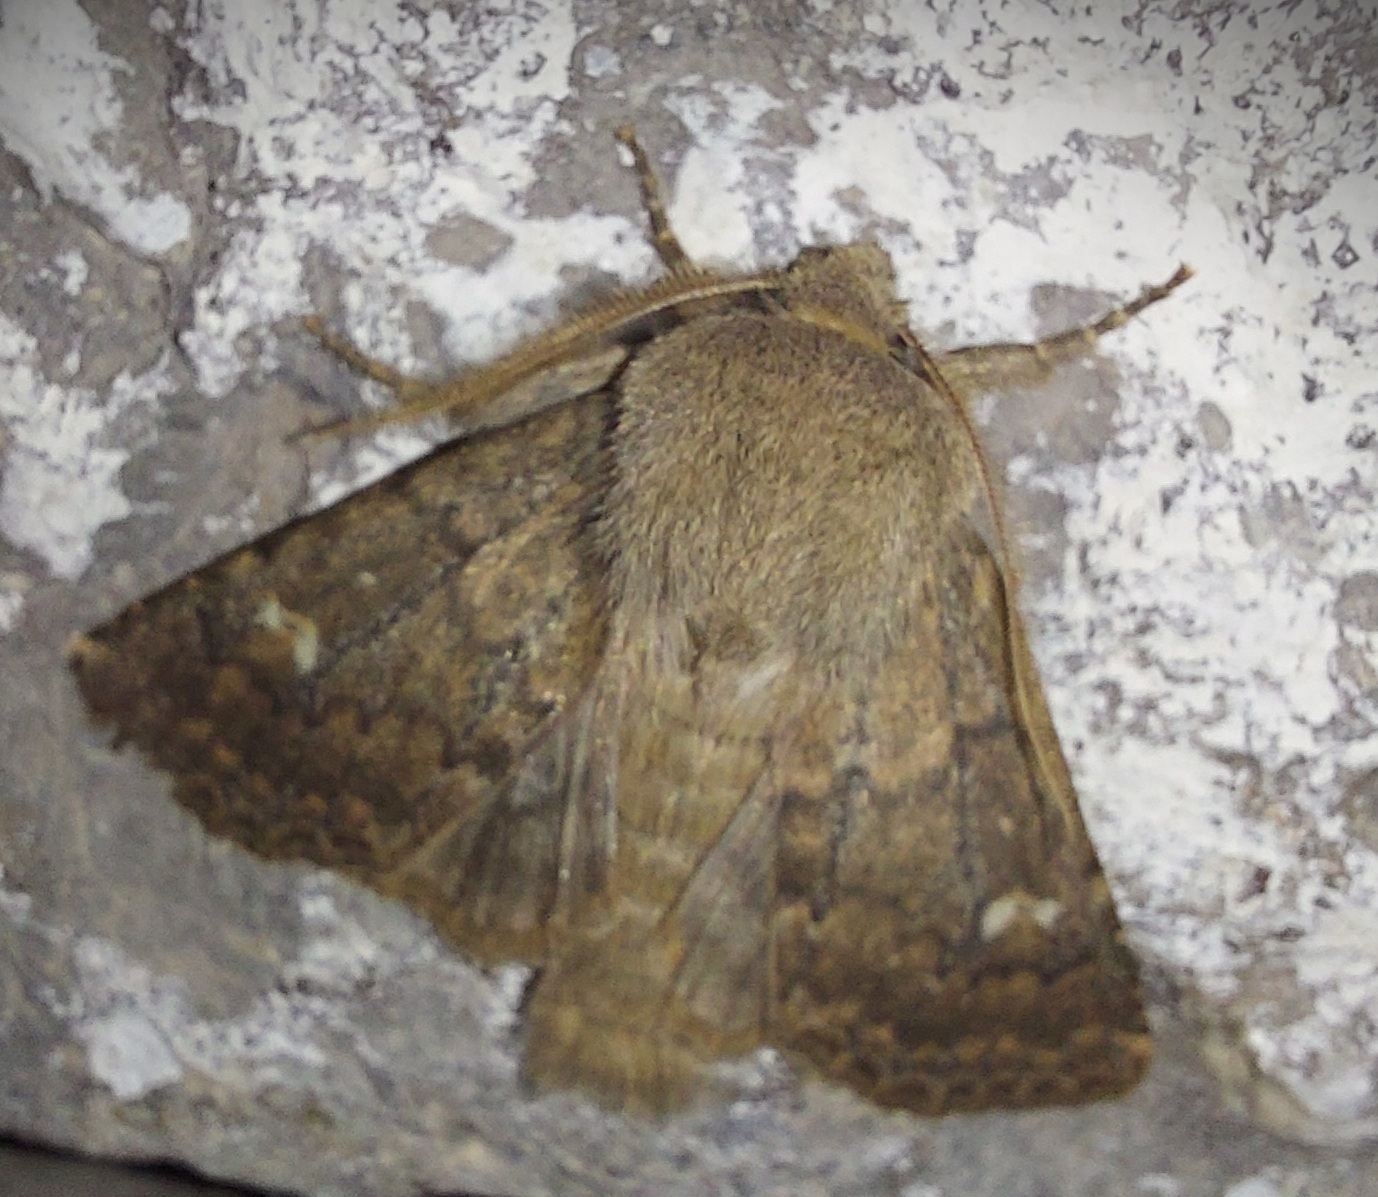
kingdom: Animalia
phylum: Arthropoda
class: Insecta
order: Lepidoptera
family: Noctuidae
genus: Dasypolia
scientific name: Dasypolia templi
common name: Brindled ochre
